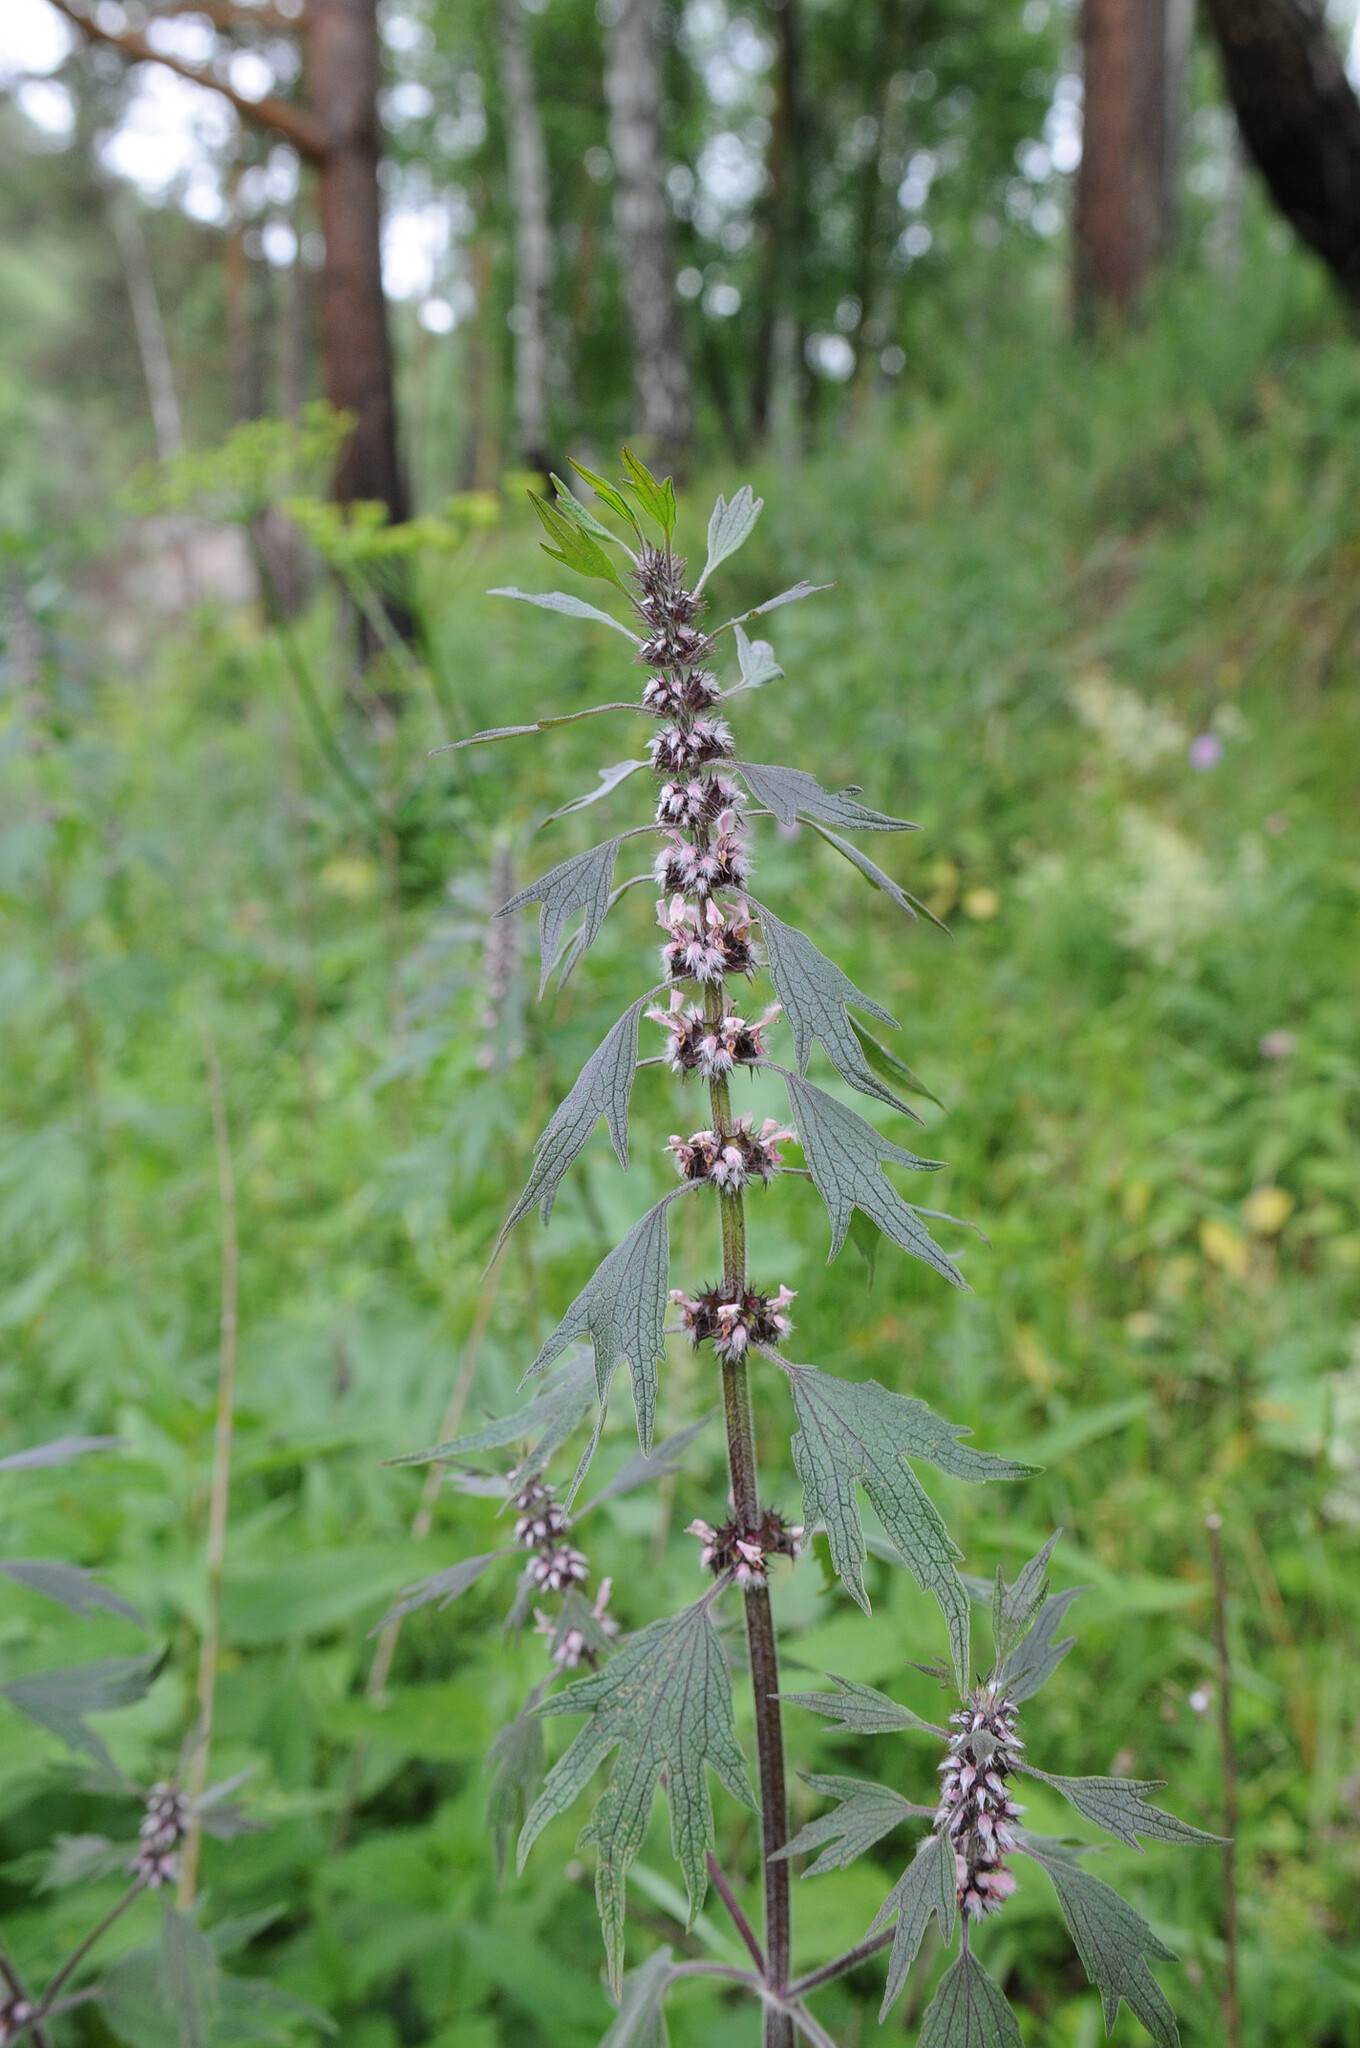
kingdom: Plantae
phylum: Tracheophyta
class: Magnoliopsida
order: Lamiales
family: Lamiaceae
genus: Leonurus
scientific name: Leonurus quinquelobatus
